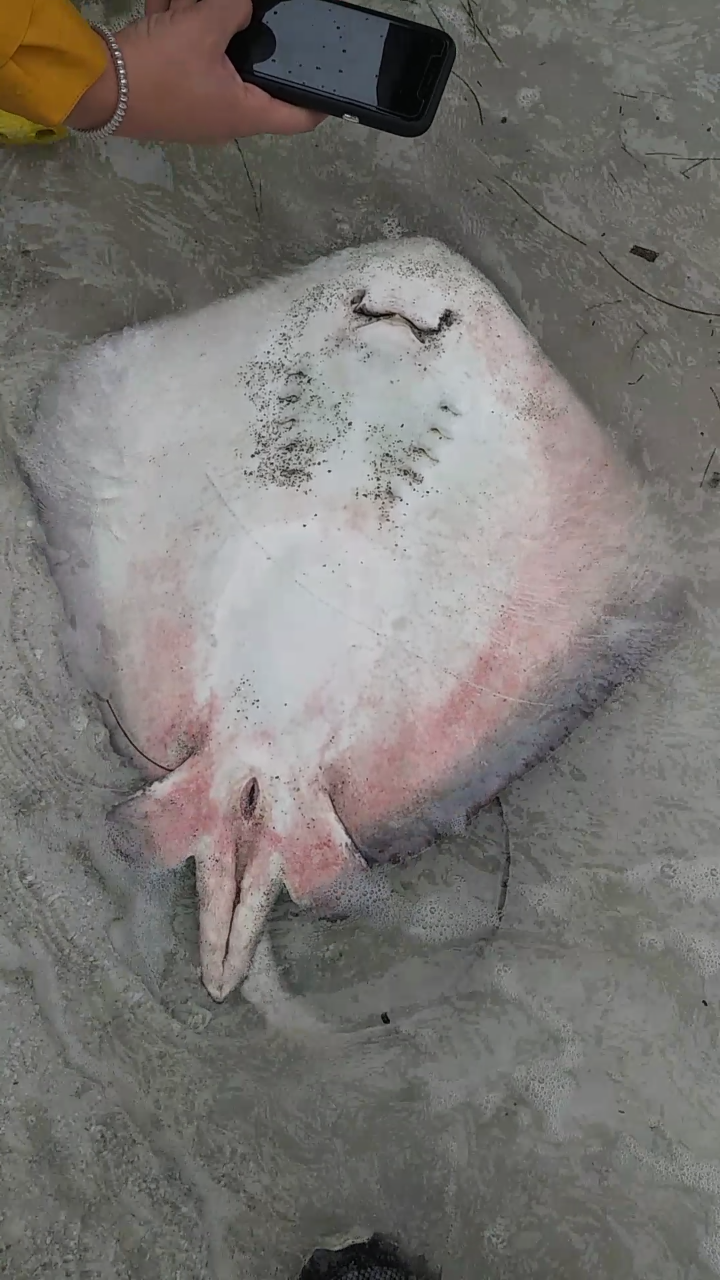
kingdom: Animalia
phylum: Chordata
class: Elasmobranchii
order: Myliobatiformes
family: Dasyatidae
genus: Hypanus
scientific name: Hypanus americanus
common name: Southern stingray
